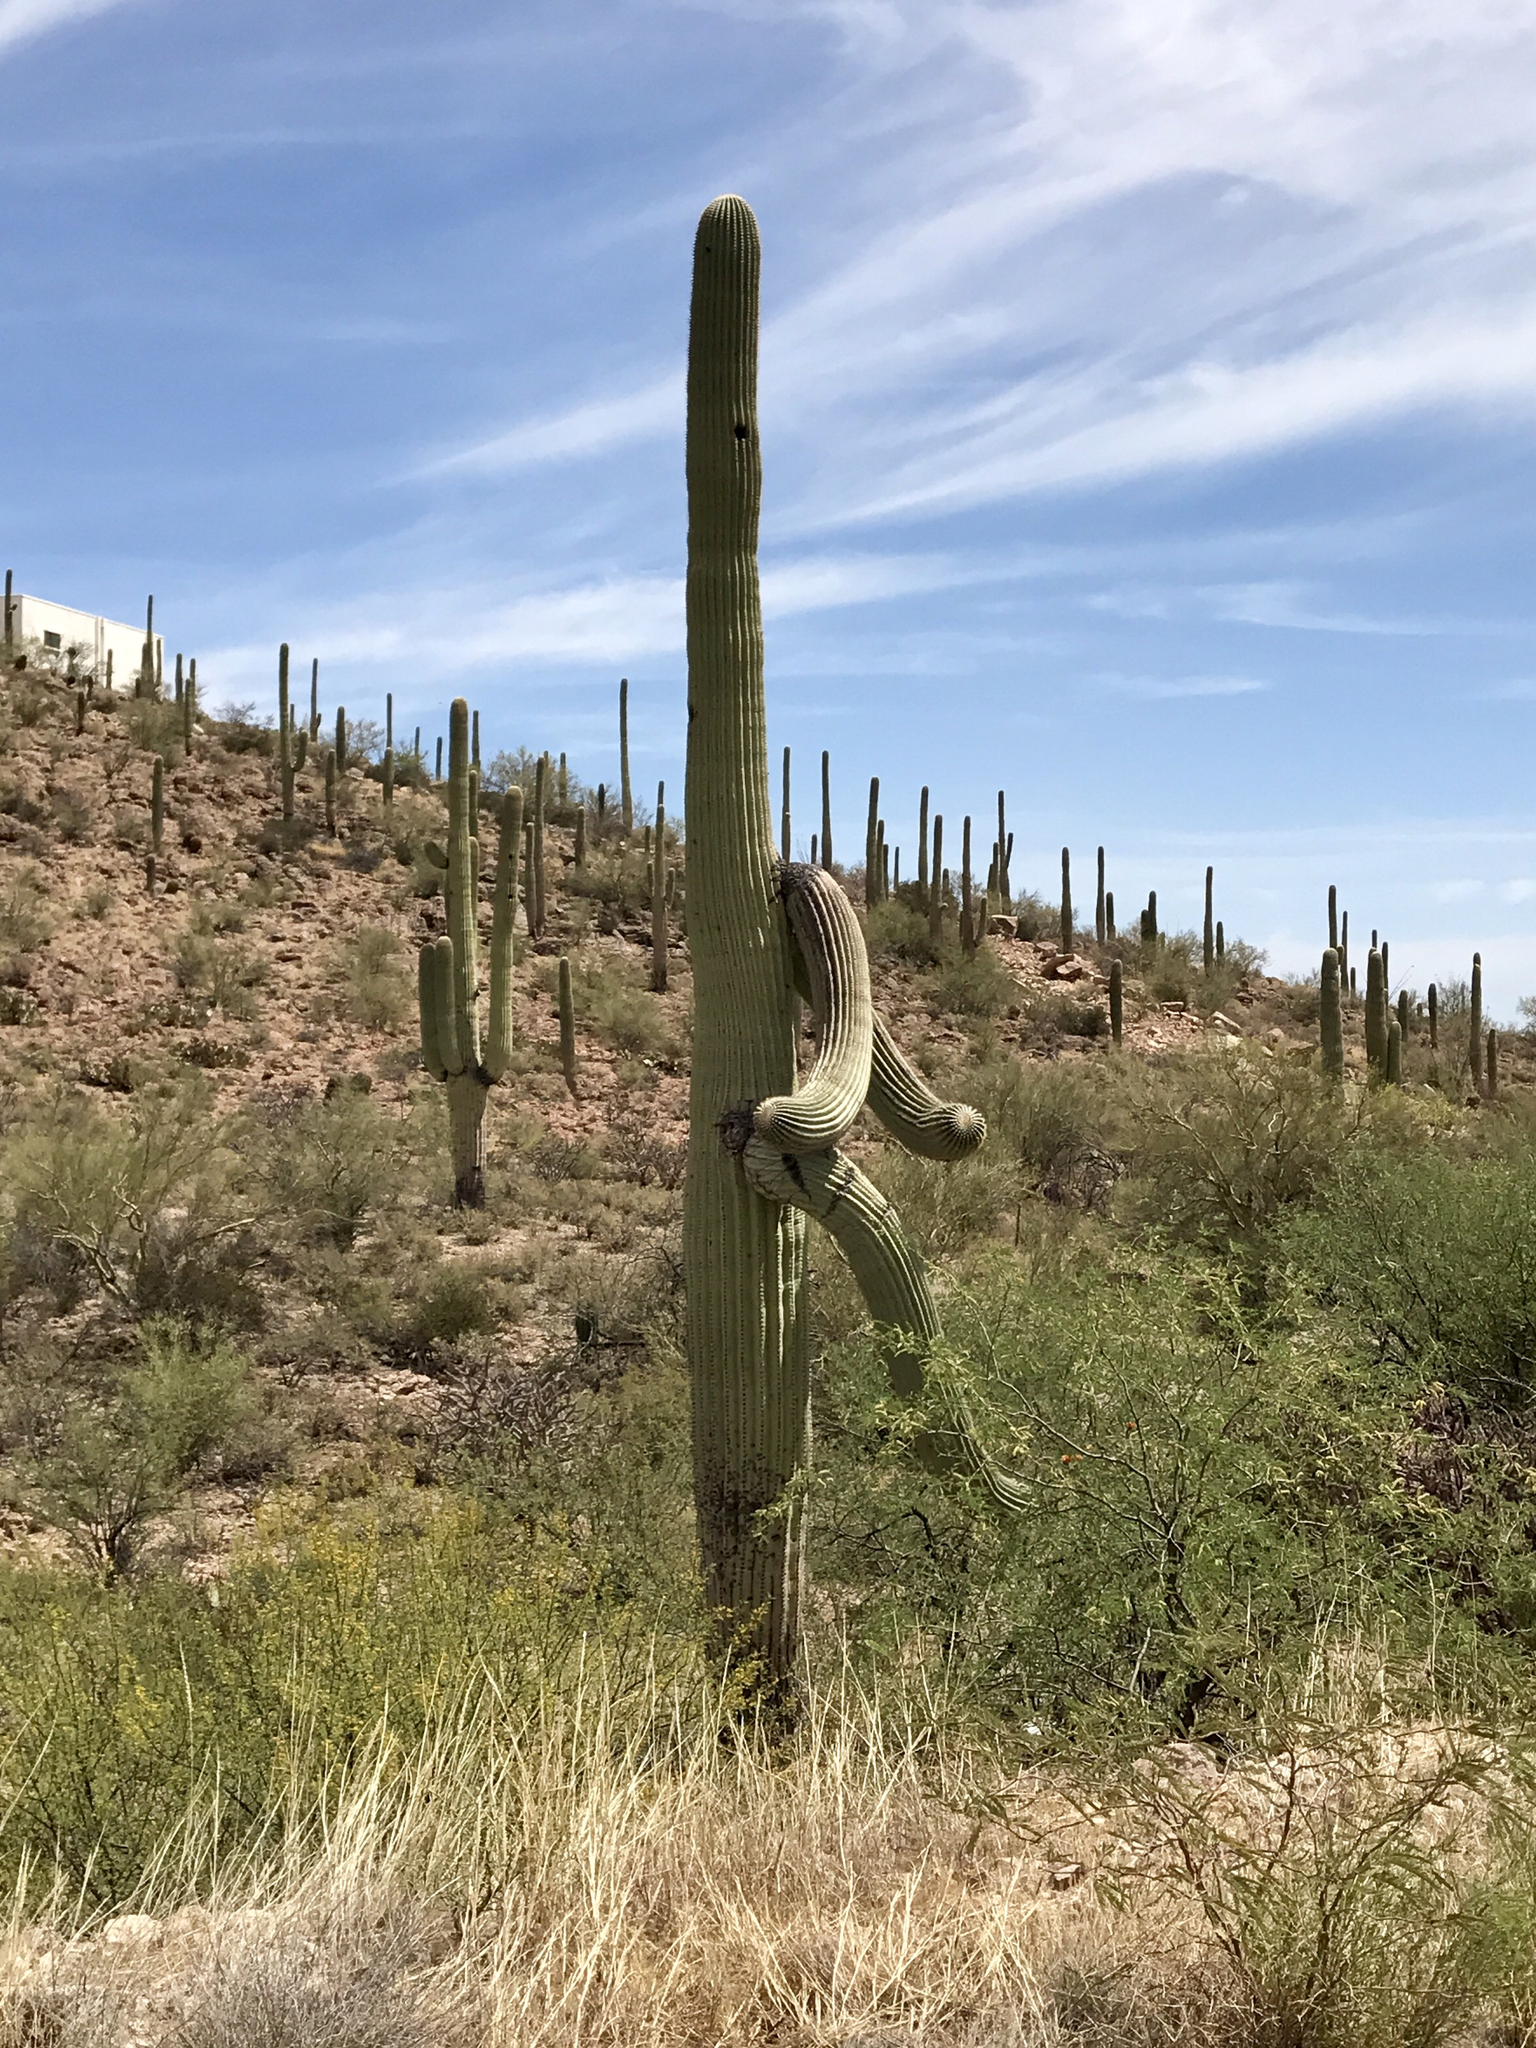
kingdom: Plantae
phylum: Tracheophyta
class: Magnoliopsida
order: Caryophyllales
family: Cactaceae
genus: Carnegiea
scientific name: Carnegiea gigantea
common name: Saguaro
